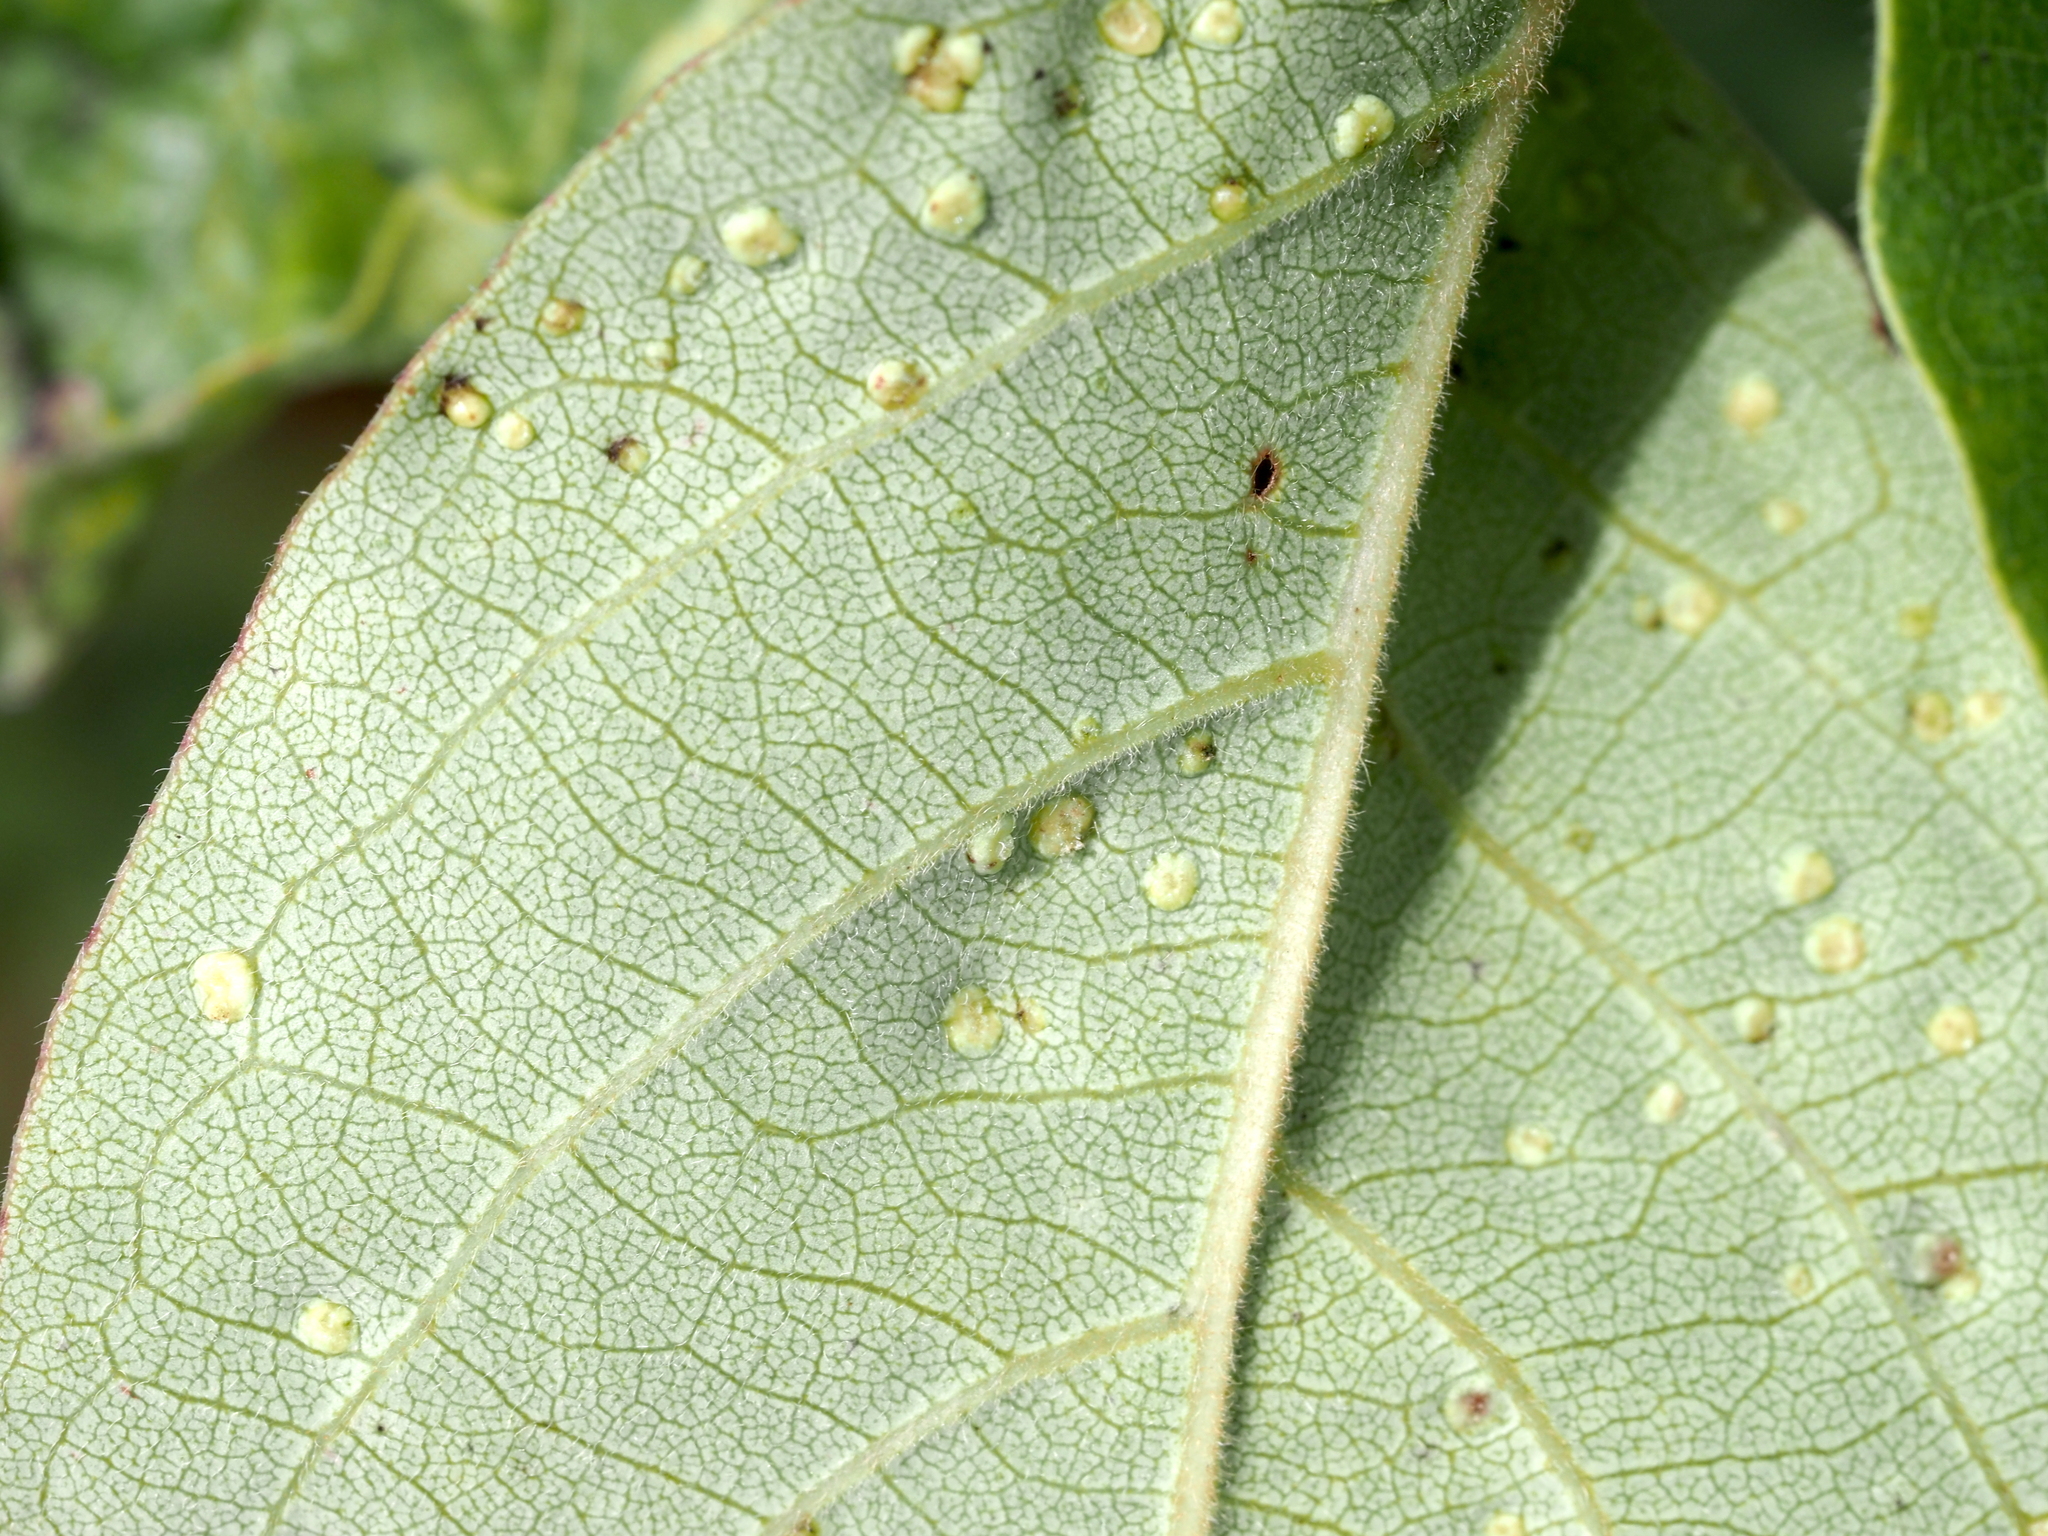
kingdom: Animalia
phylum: Arthropoda
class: Arachnida
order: Trombidiformes
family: Eriophyidae
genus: Aceria
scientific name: Aceria
